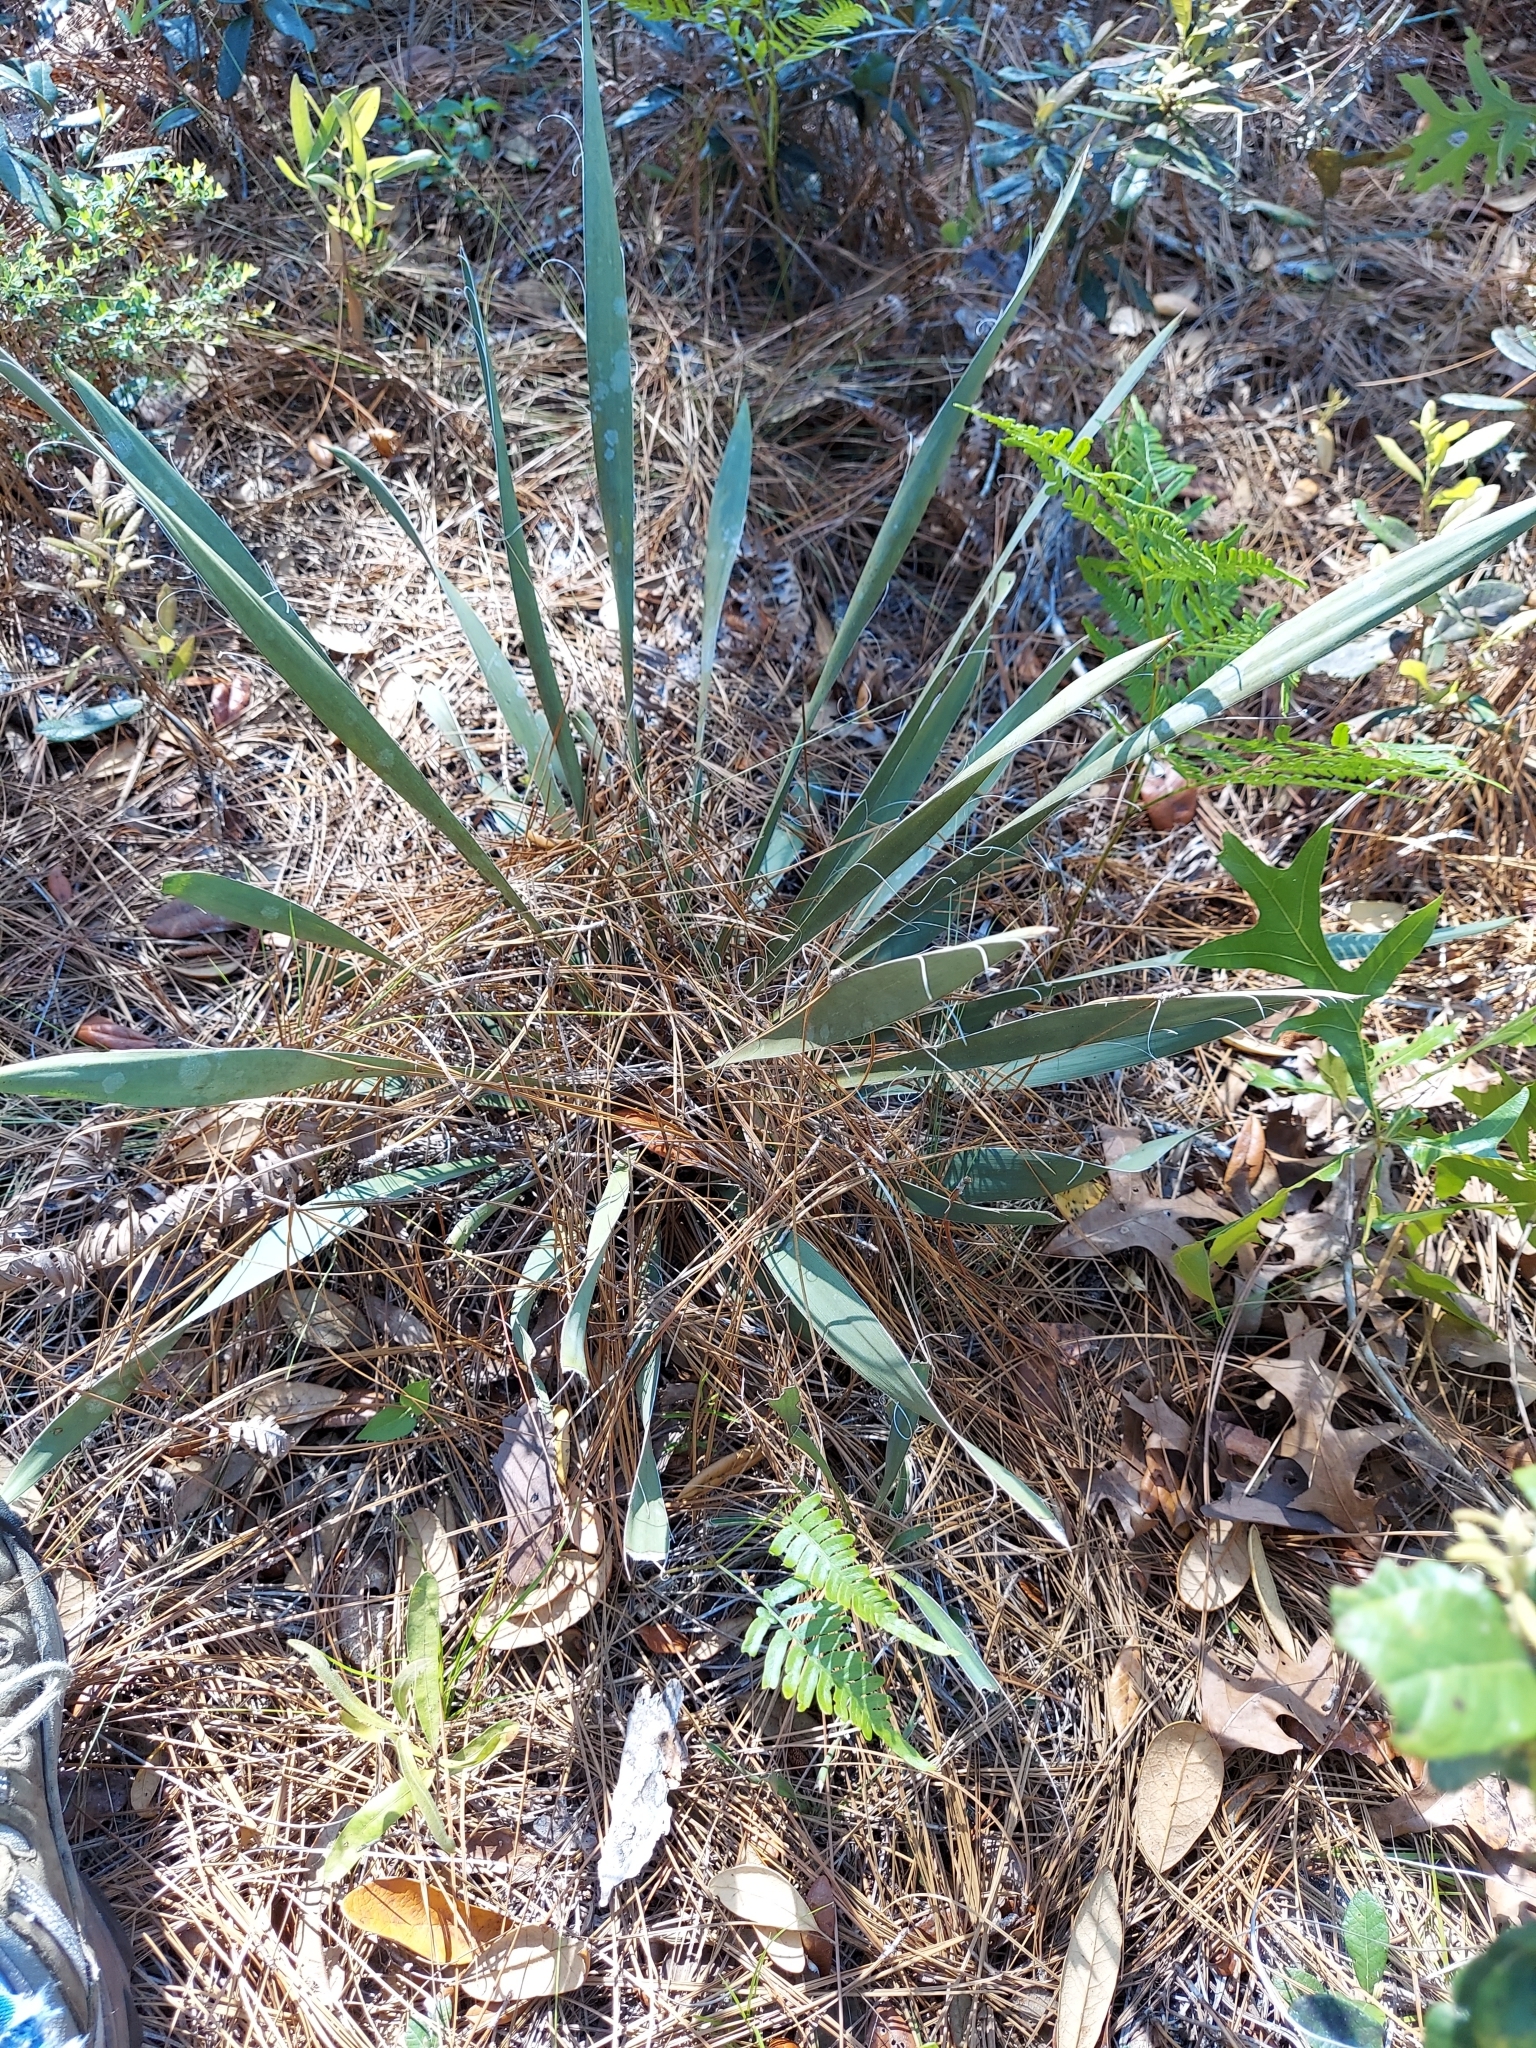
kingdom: Plantae
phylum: Tracheophyta
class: Liliopsida
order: Asparagales
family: Asparagaceae
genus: Yucca
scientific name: Yucca filamentosa
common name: Adam's-needle
